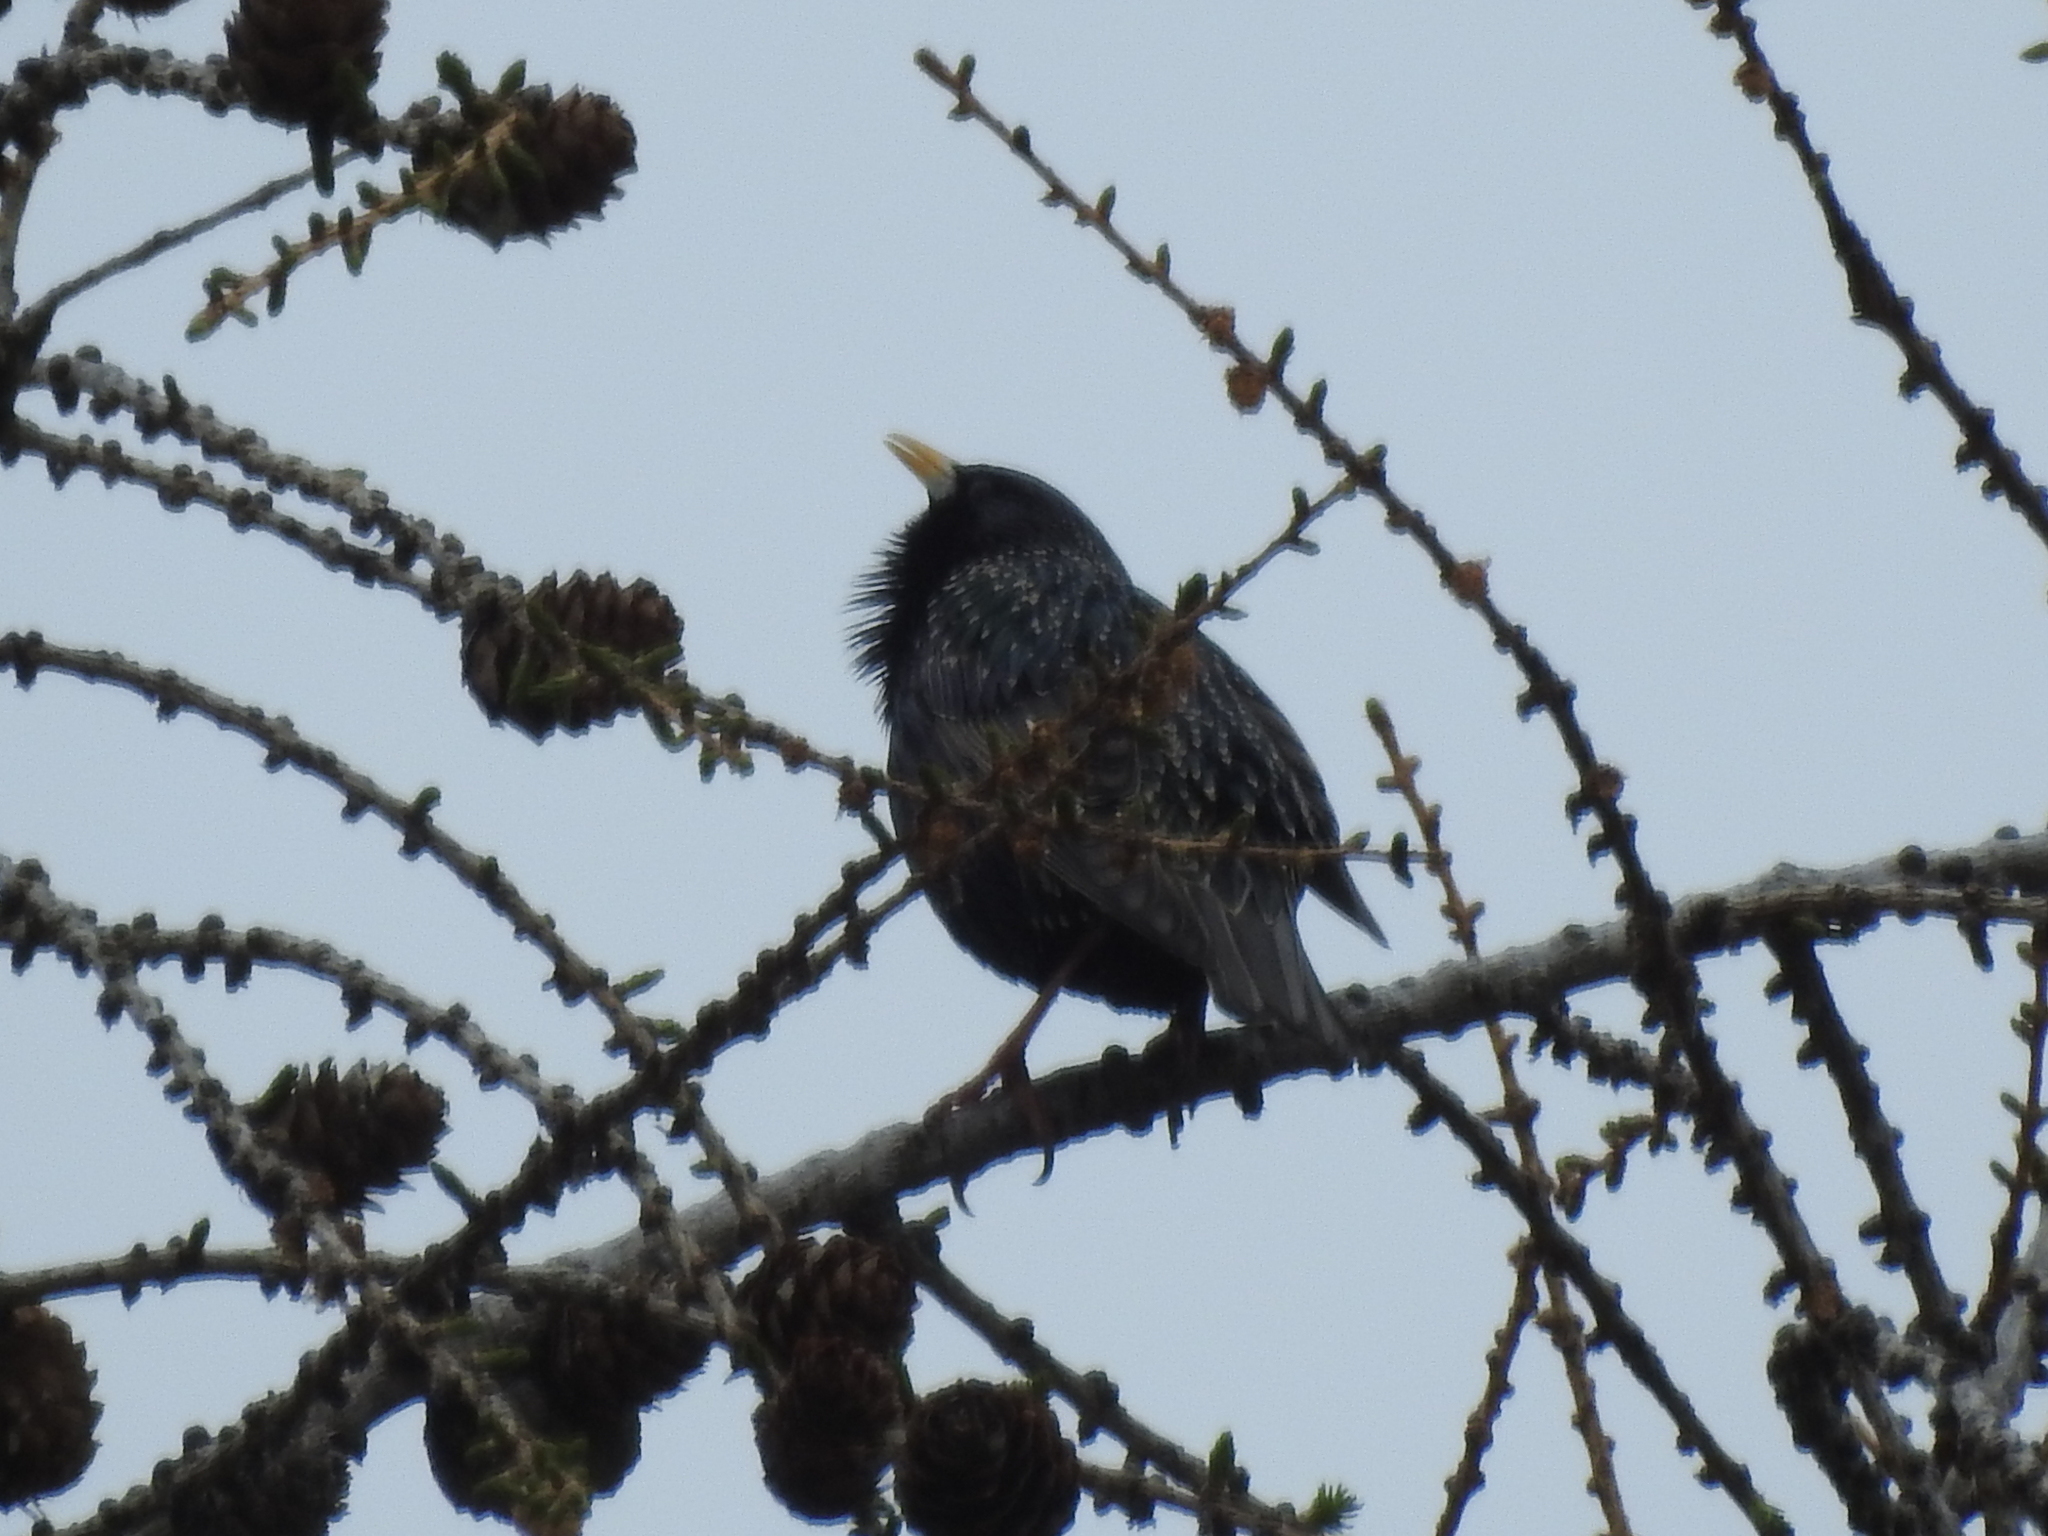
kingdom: Animalia
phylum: Chordata
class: Aves
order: Passeriformes
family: Sturnidae
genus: Sturnus
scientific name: Sturnus vulgaris
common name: Common starling
